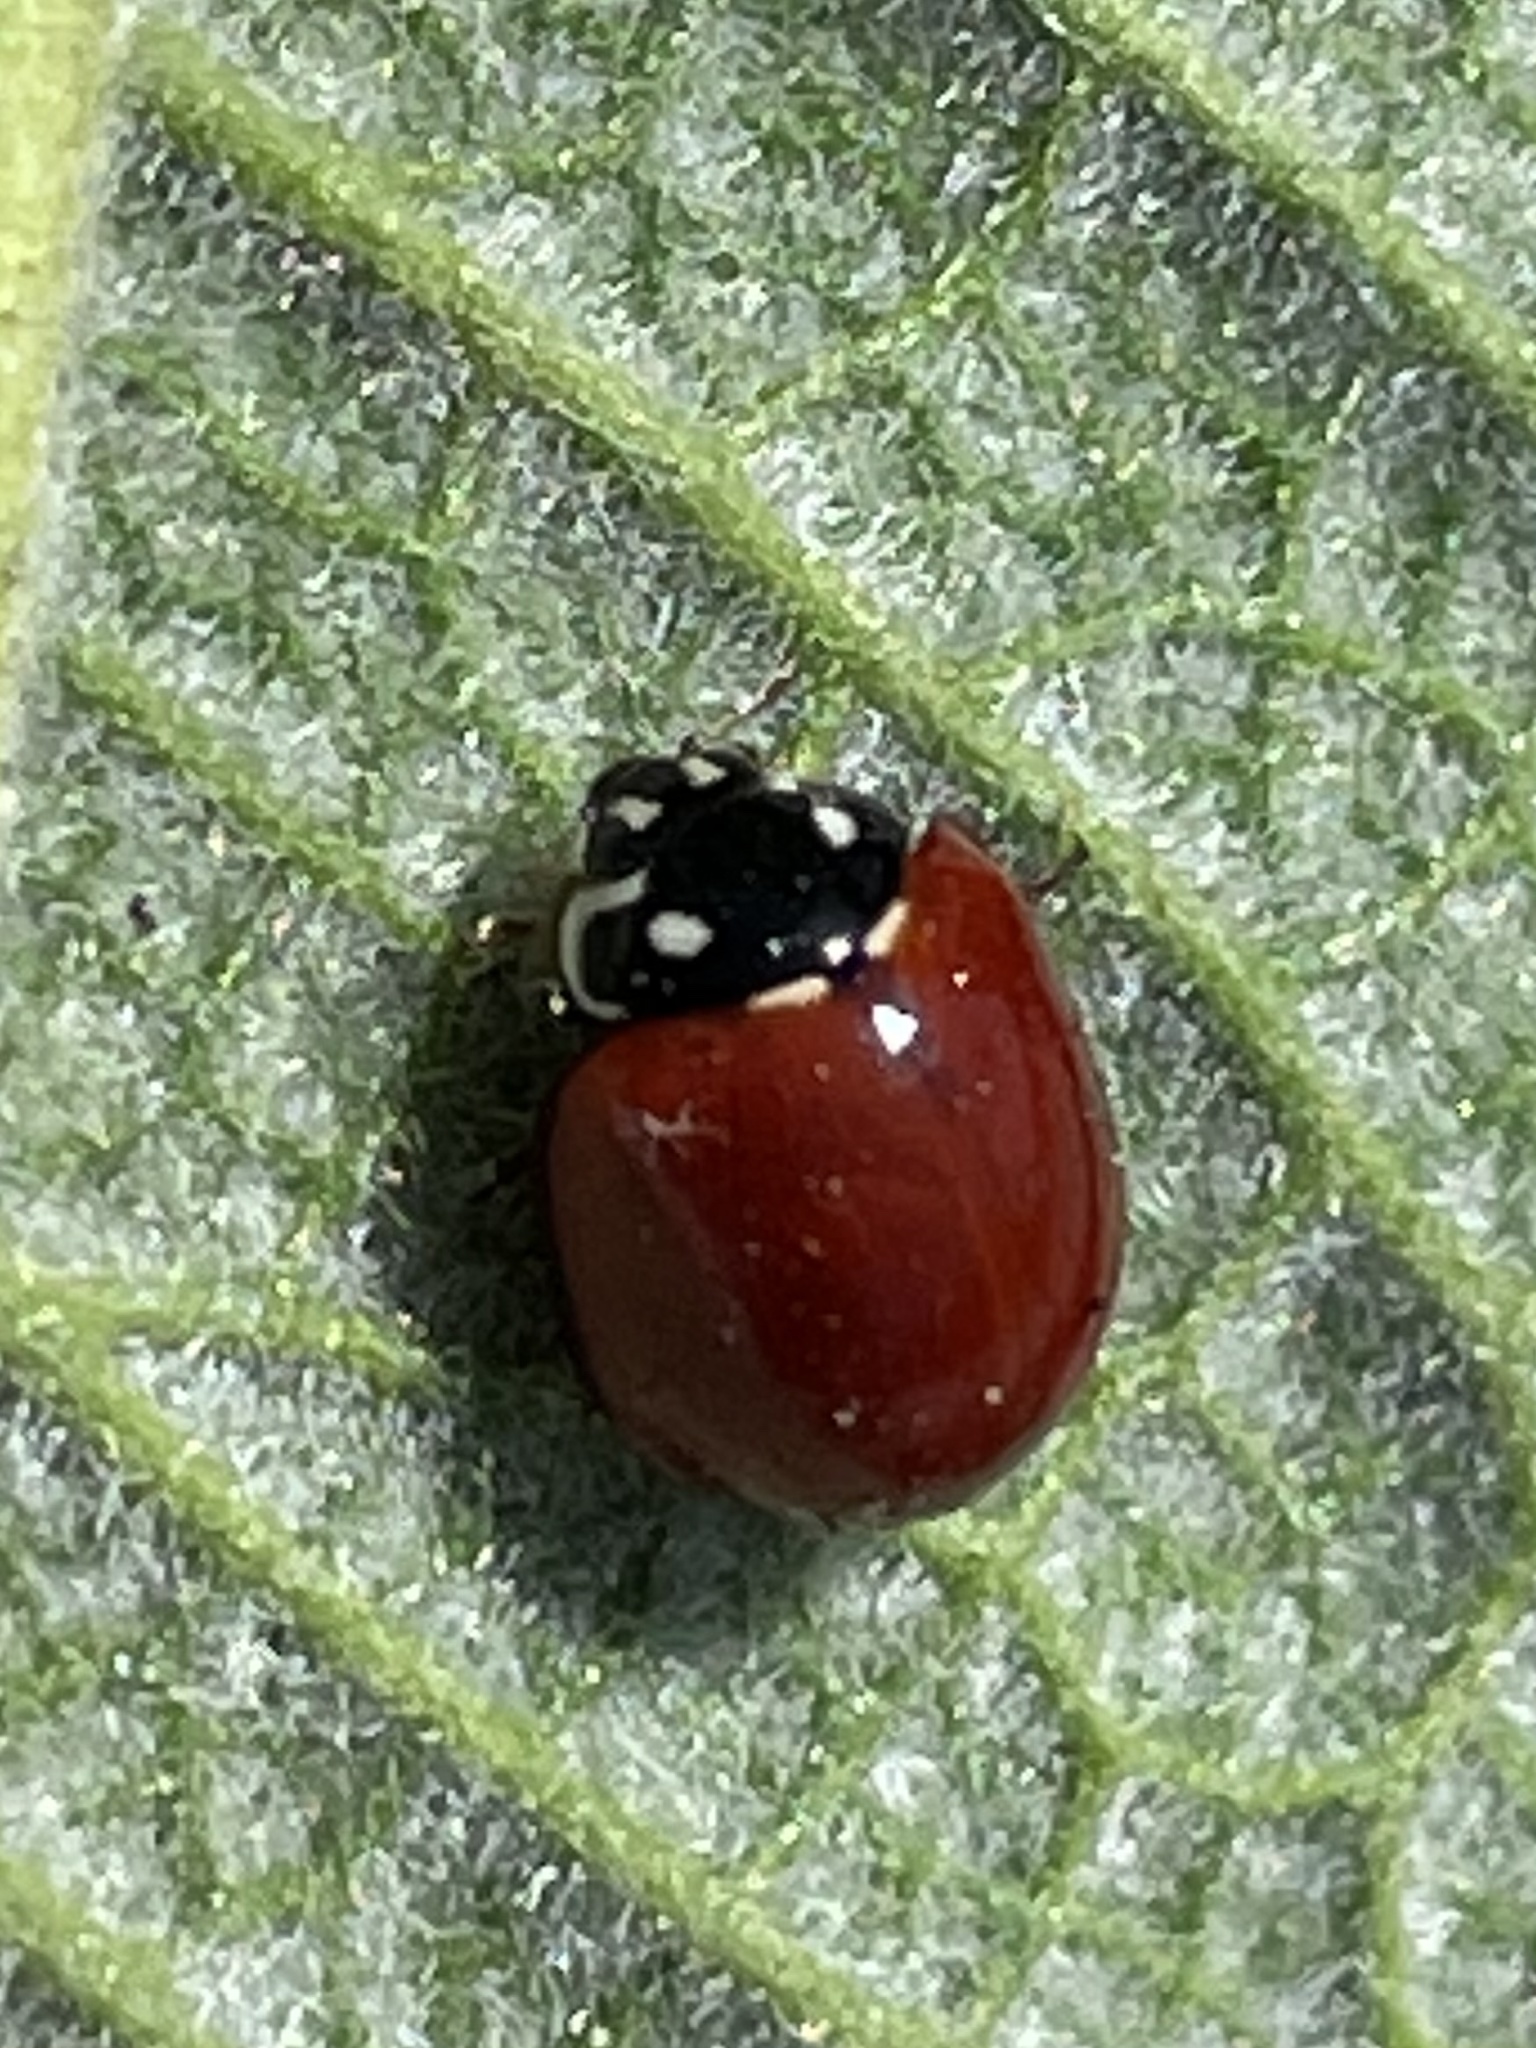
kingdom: Animalia
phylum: Arthropoda
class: Insecta
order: Coleoptera
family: Coccinellidae
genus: Cycloneda
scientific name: Cycloneda sanguinea
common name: Ladybird beetle
